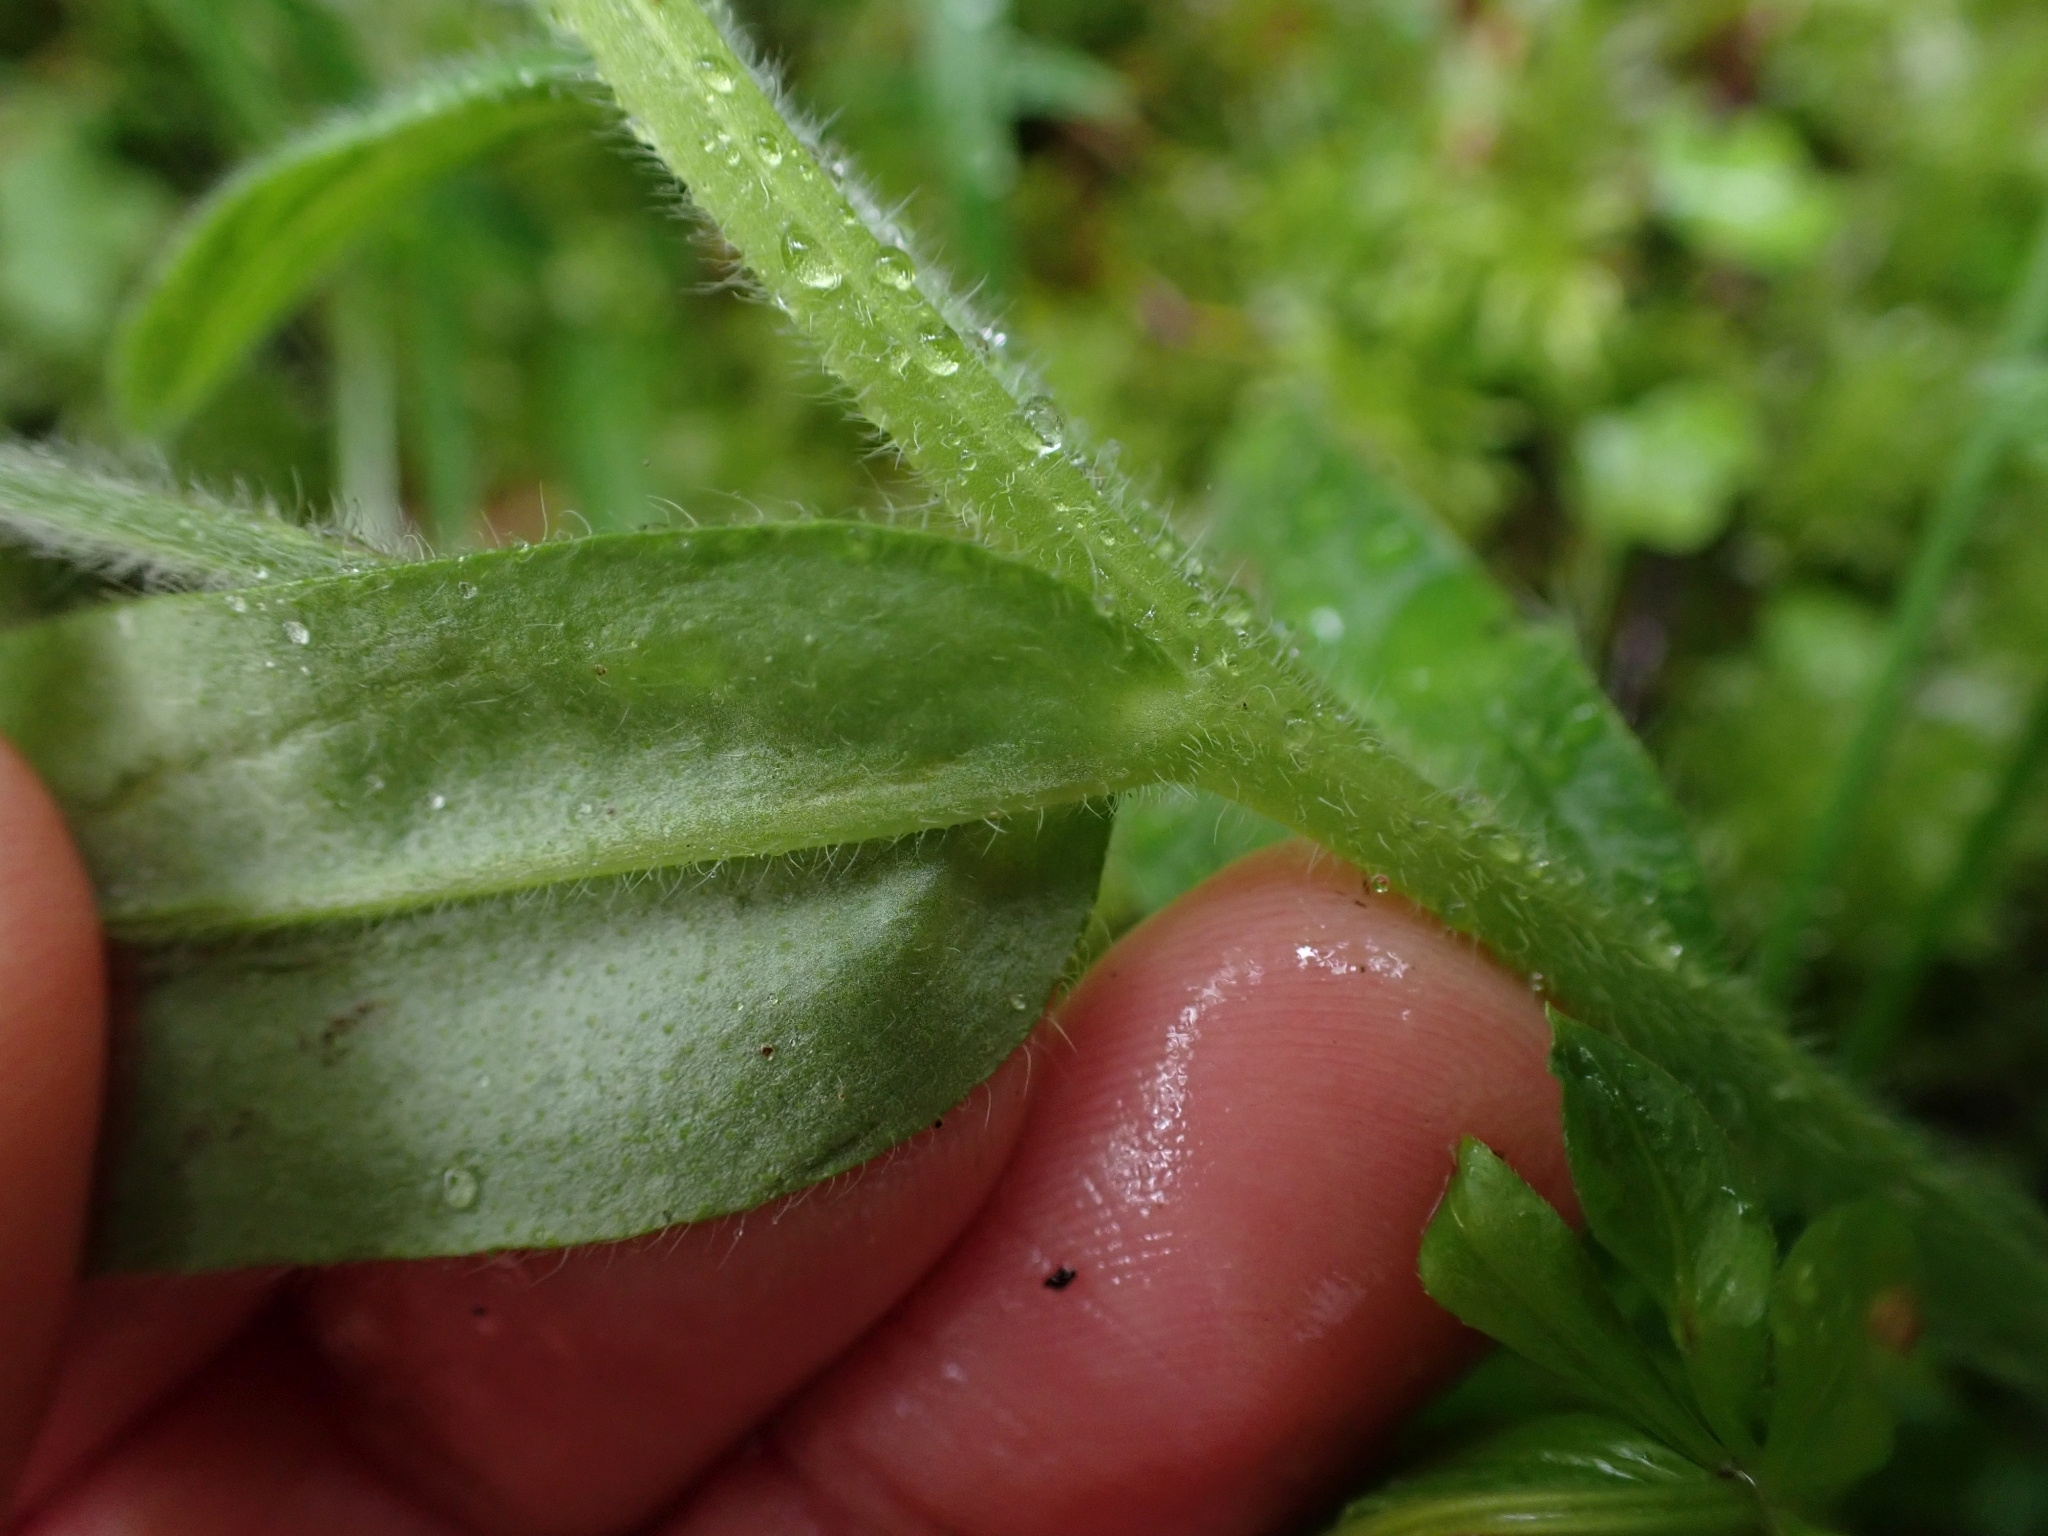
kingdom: Plantae
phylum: Tracheophyta
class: Magnoliopsida
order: Boraginales
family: Boraginaceae
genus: Myosotis
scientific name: Myosotis sylvatica
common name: Wood forget-me-not
